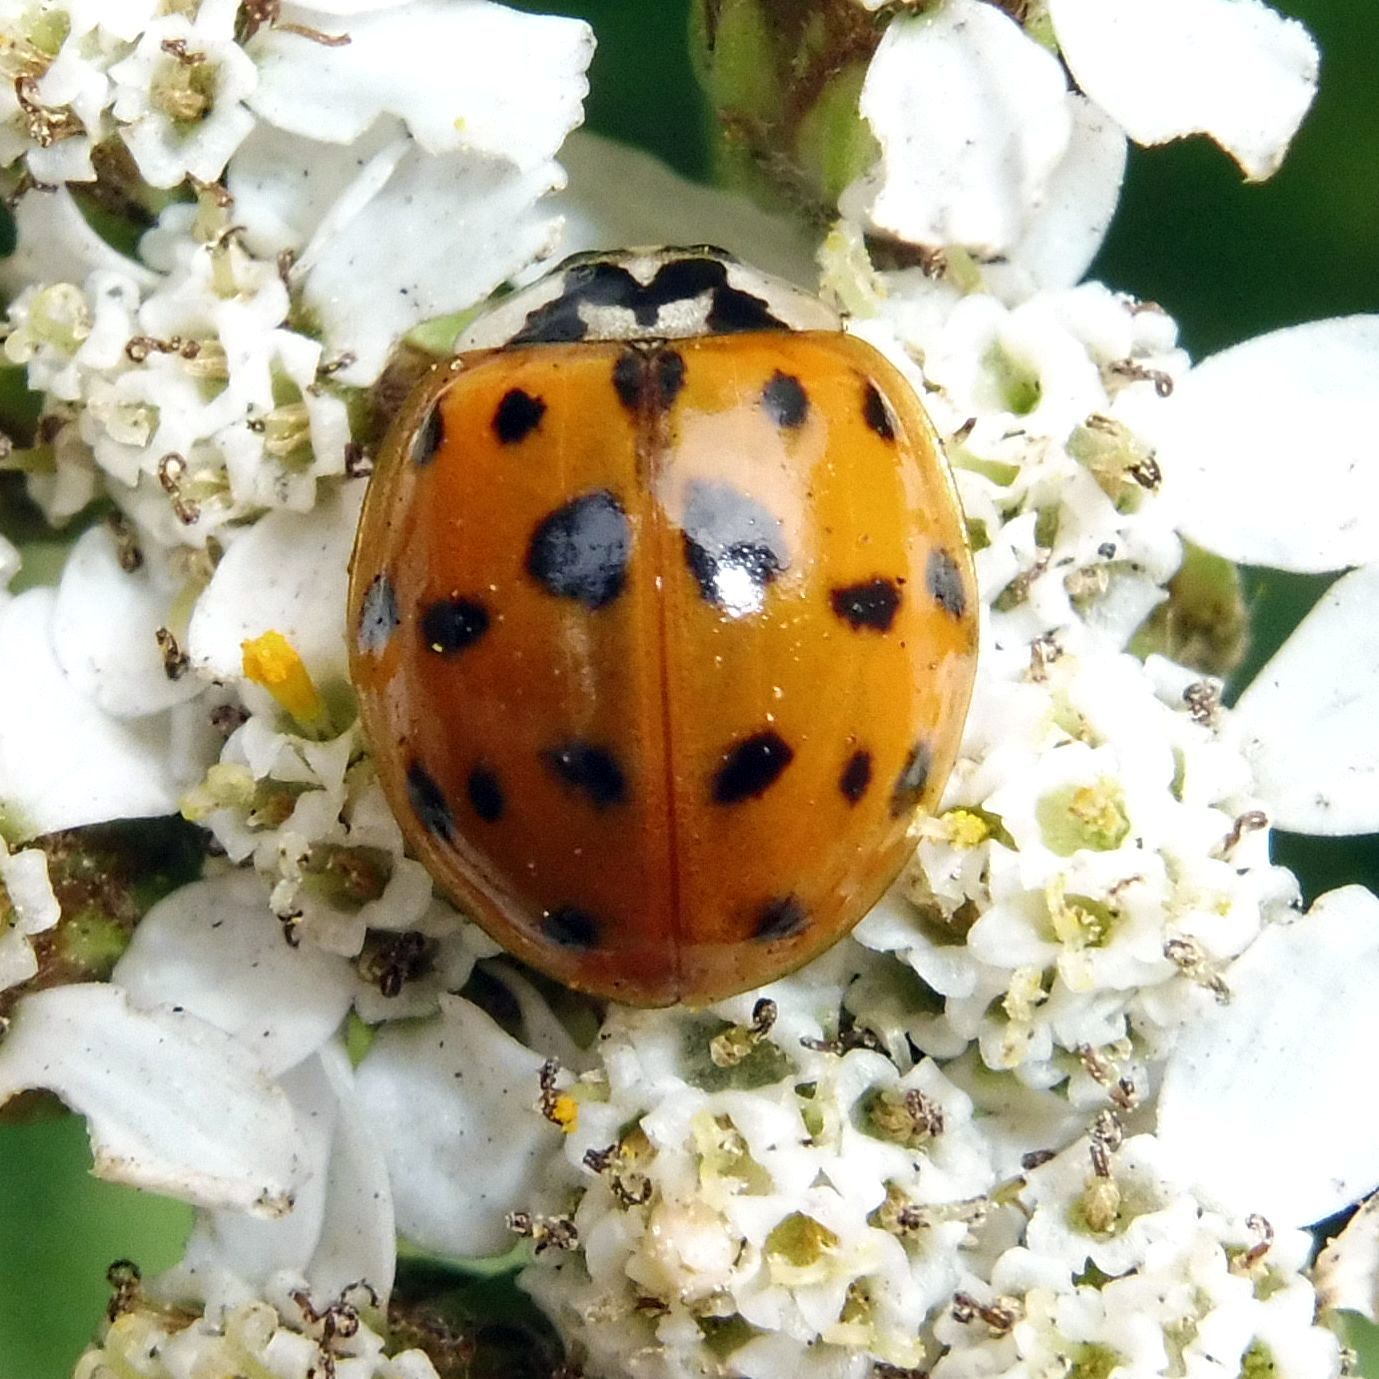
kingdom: Animalia
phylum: Arthropoda
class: Insecta
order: Coleoptera
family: Coccinellidae
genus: Harmonia
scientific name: Harmonia axyridis
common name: Harlequin ladybird
